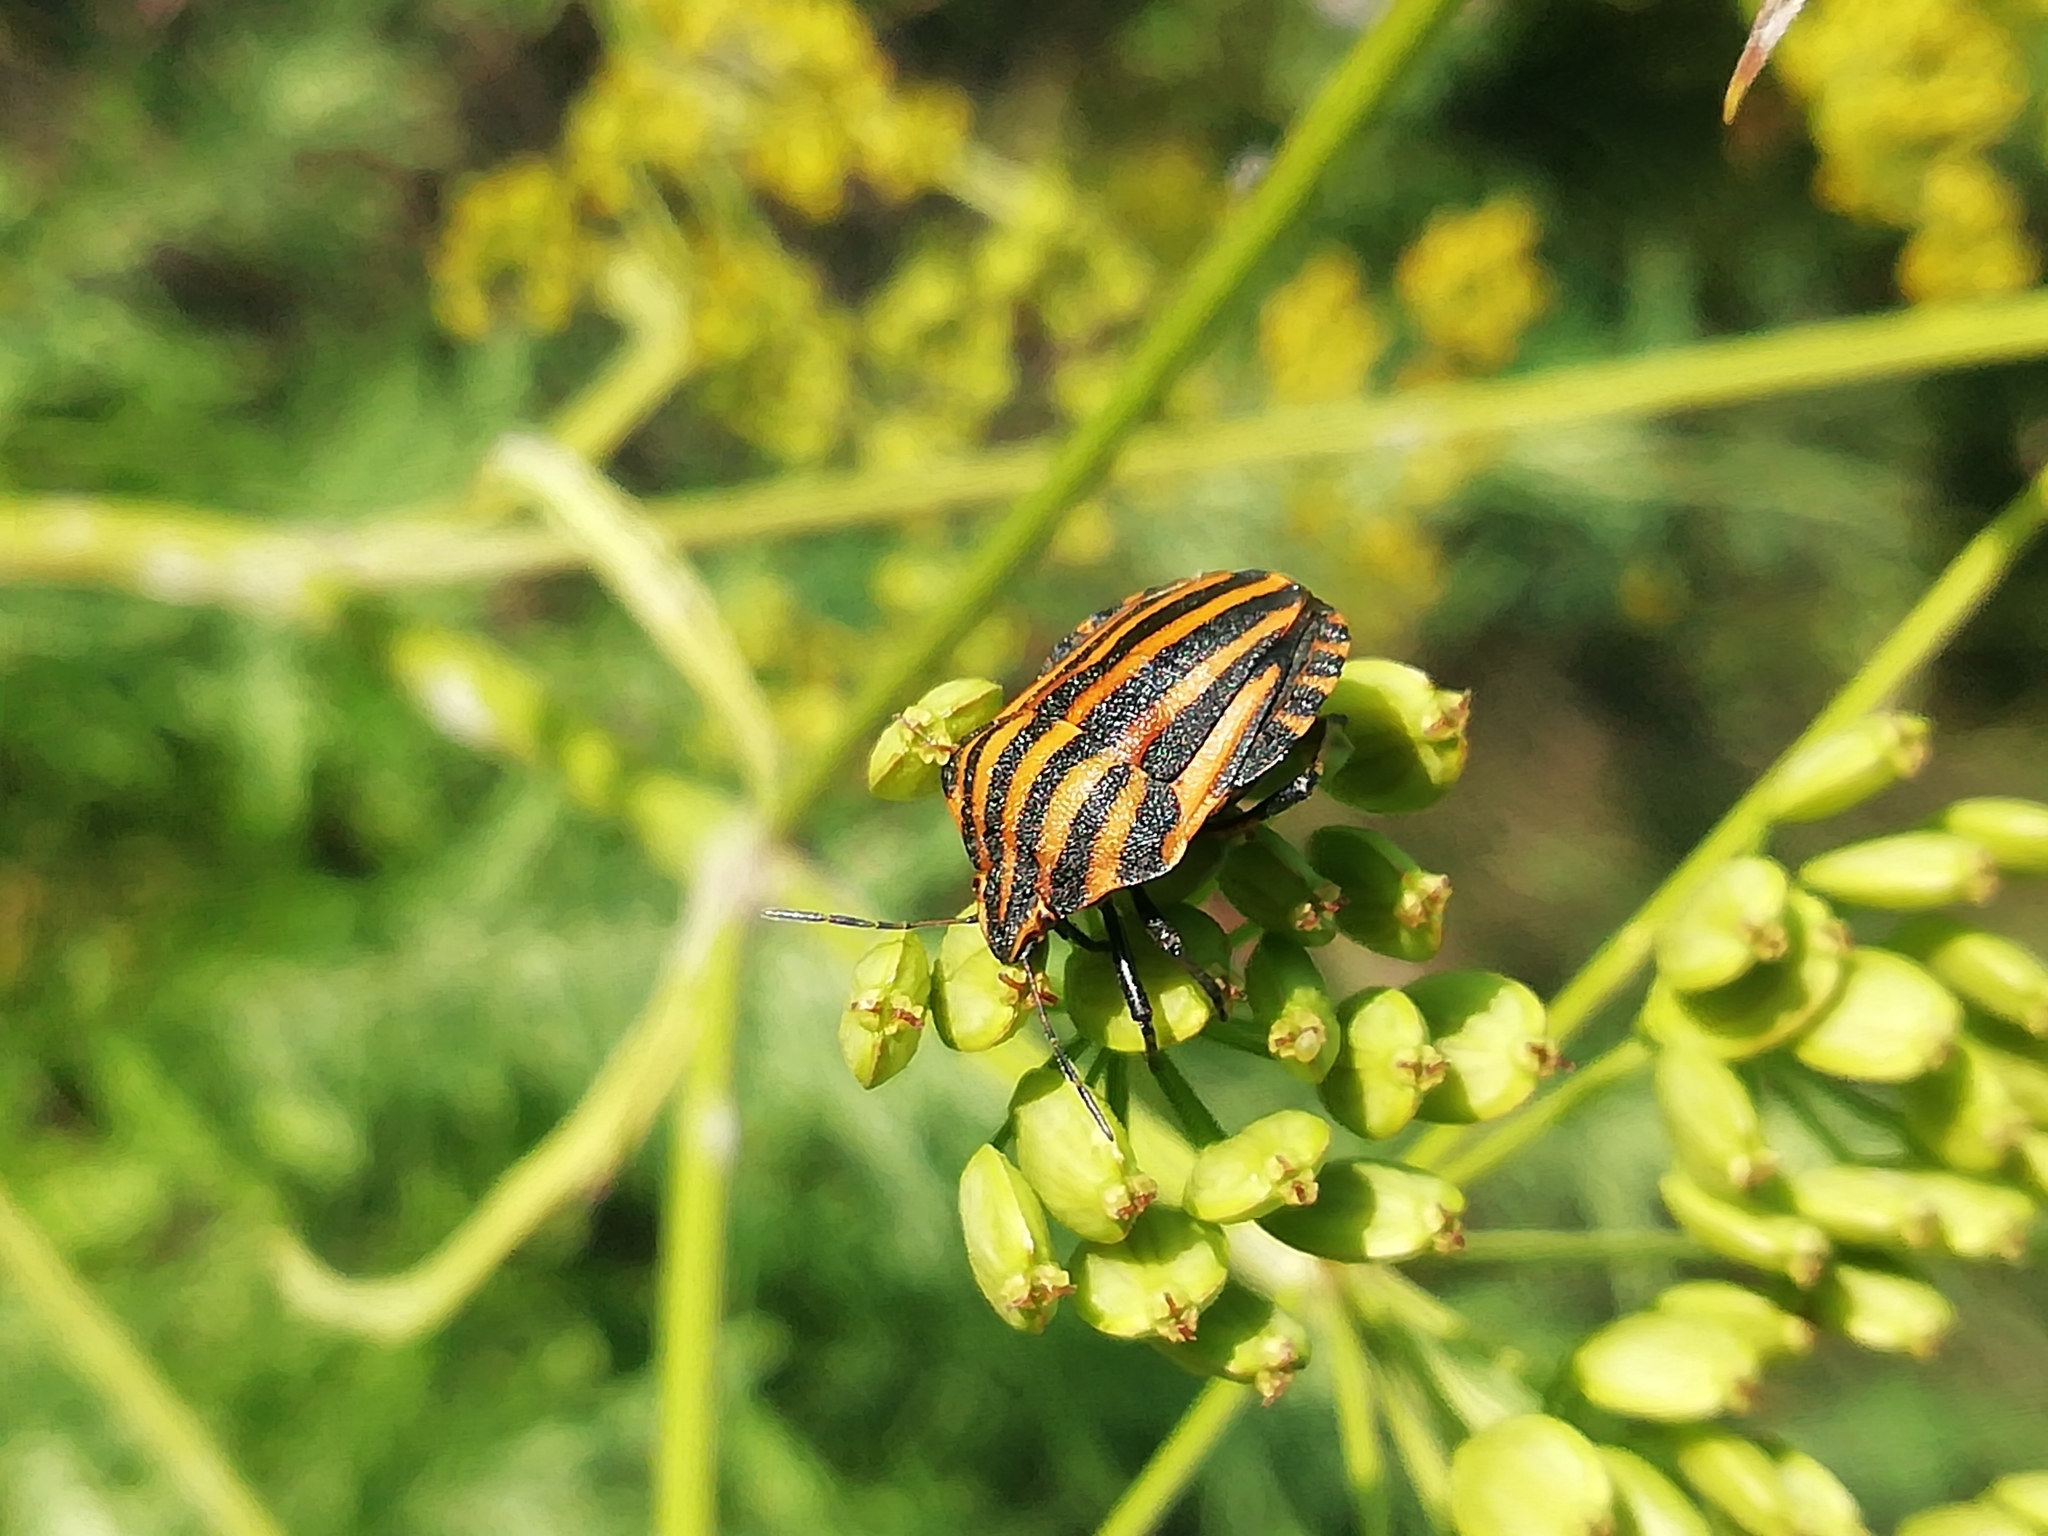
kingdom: Animalia
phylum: Arthropoda
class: Insecta
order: Hemiptera
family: Pentatomidae
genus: Graphosoma
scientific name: Graphosoma italicum
